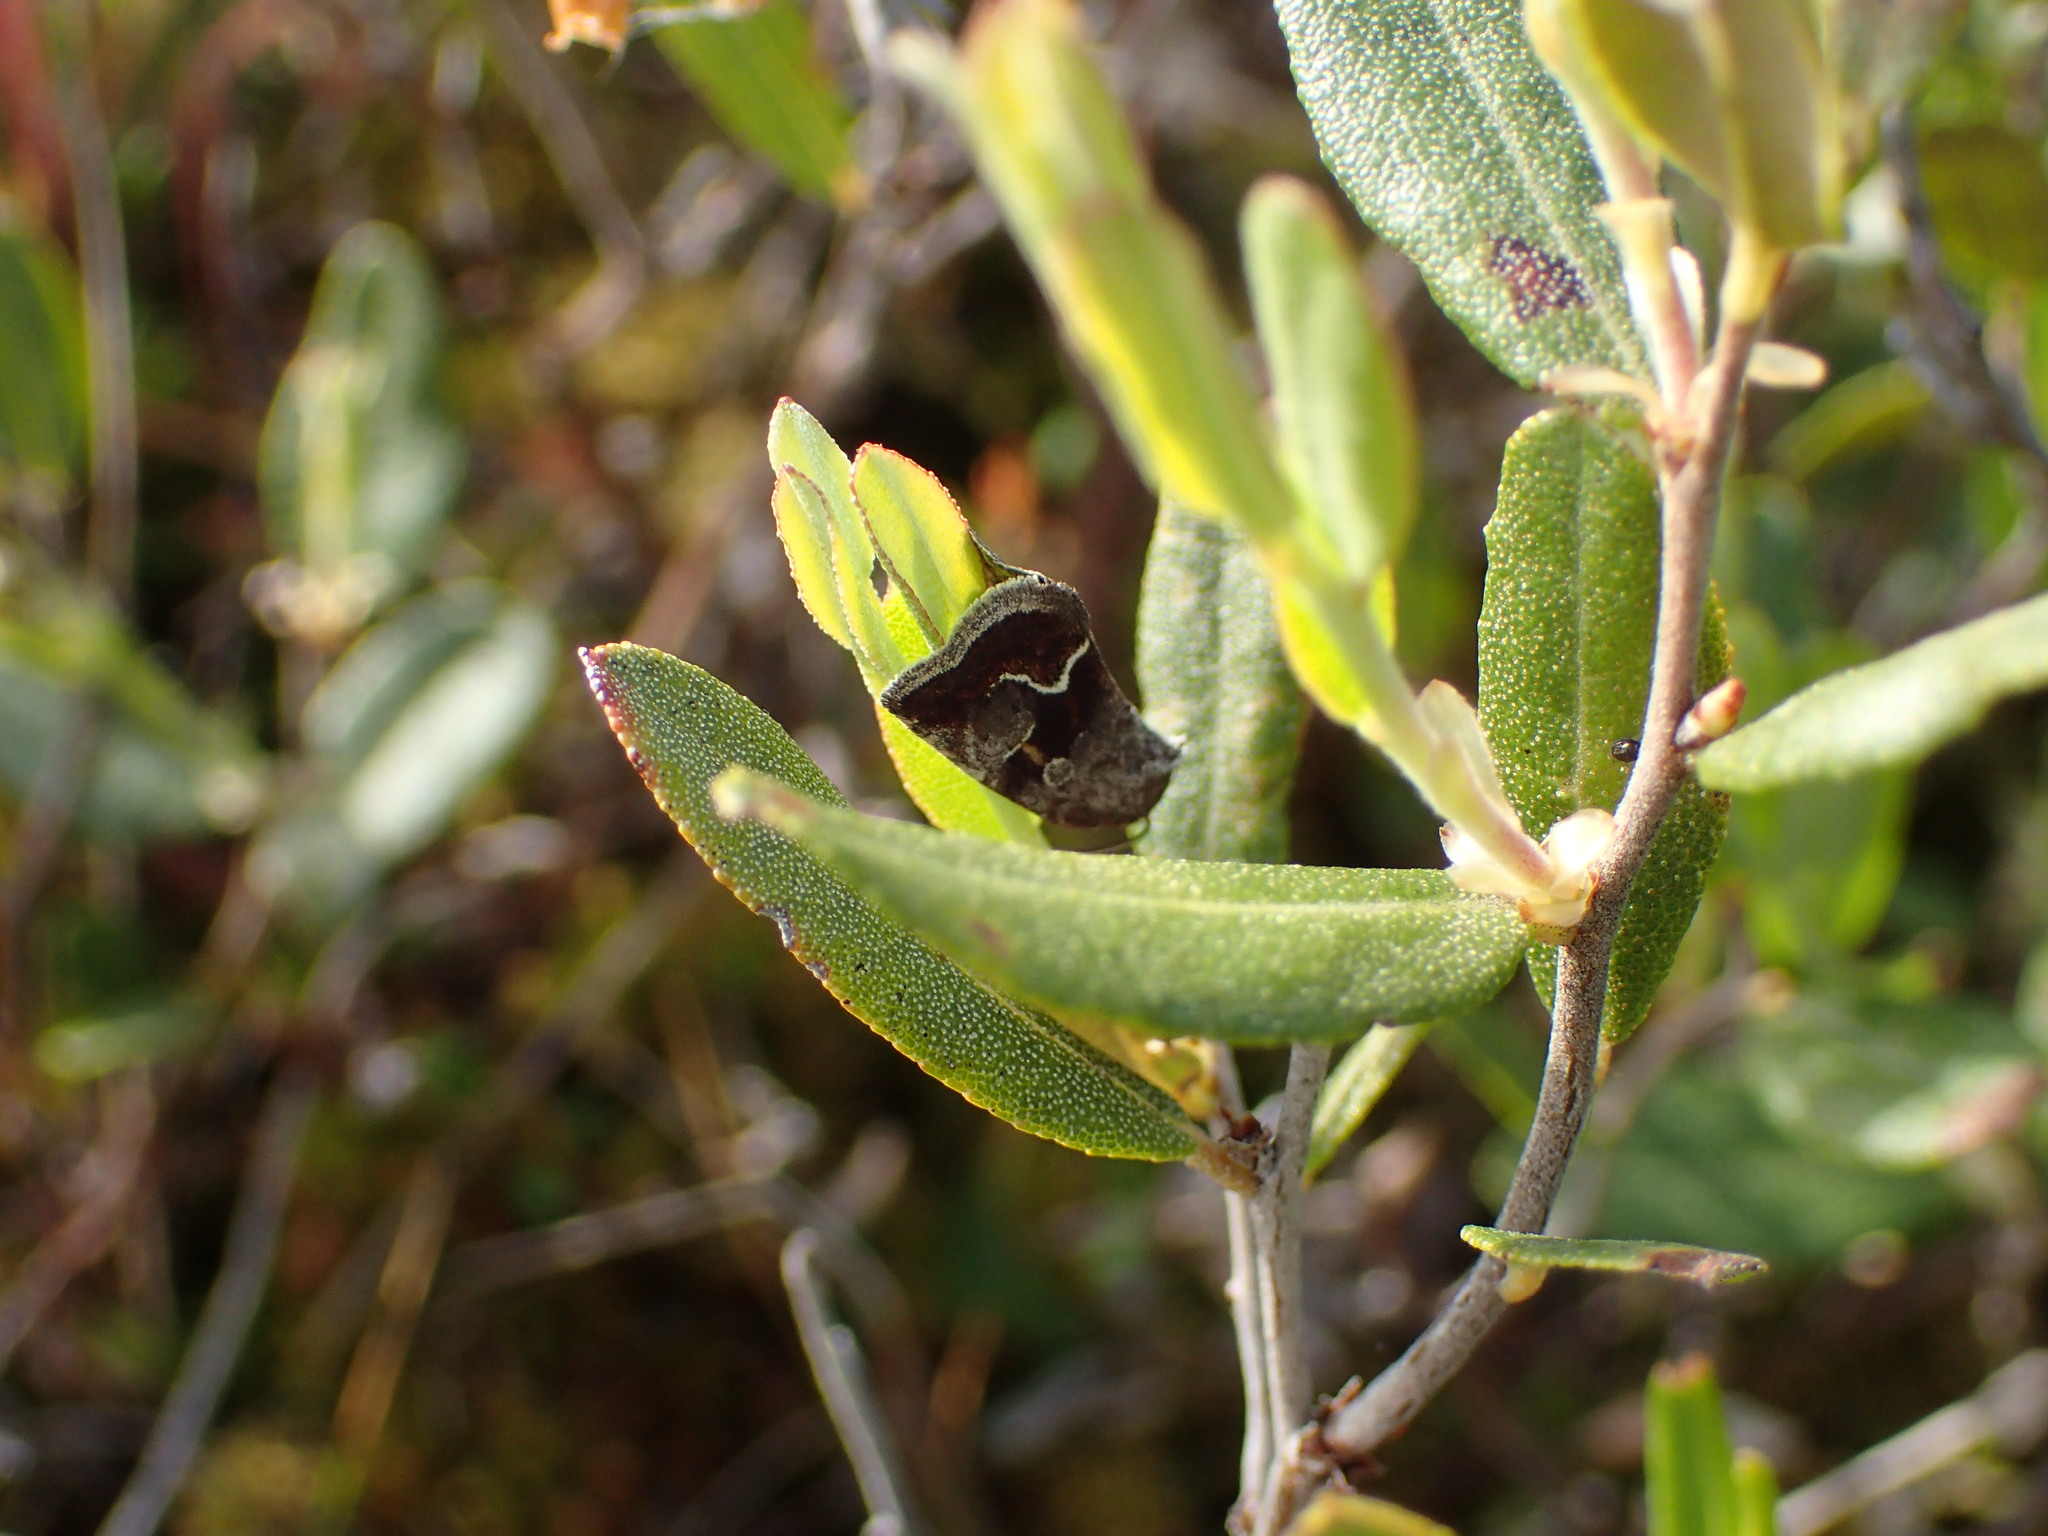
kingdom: Animalia
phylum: Arthropoda
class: Insecta
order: Lepidoptera
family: Noctuidae
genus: Deltote
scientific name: Deltote bellicula
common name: Bog glyph
